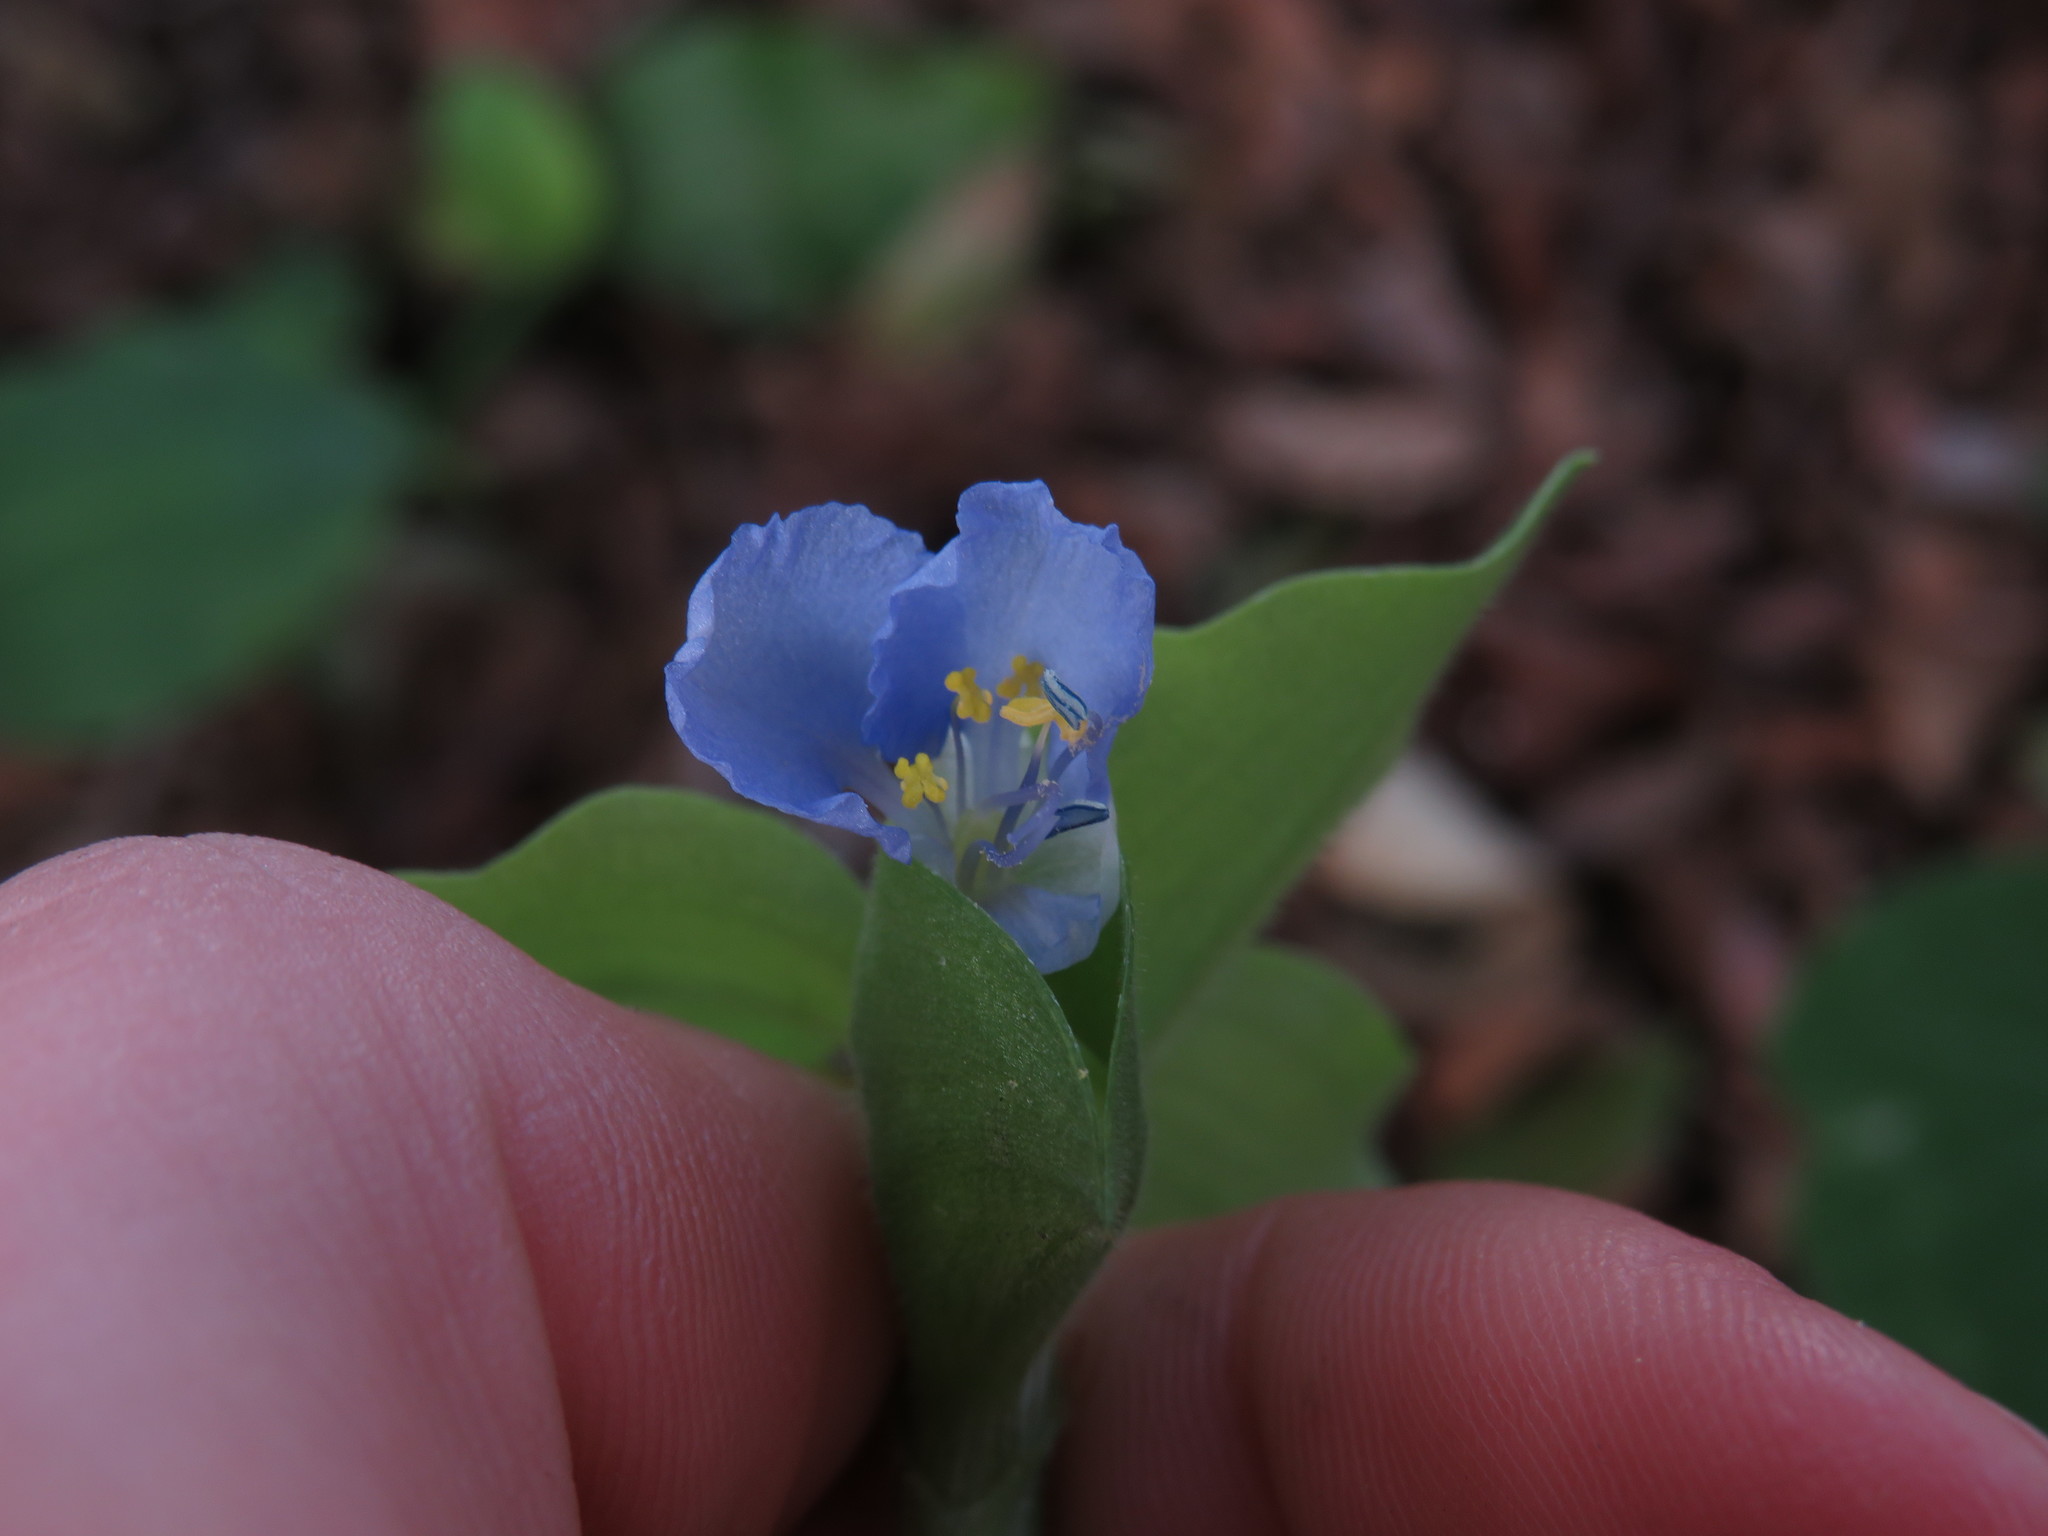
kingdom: Plantae
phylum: Tracheophyta
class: Liliopsida
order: Commelinales
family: Commelinaceae
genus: Commelina
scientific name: Commelina benghalensis
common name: Jio
